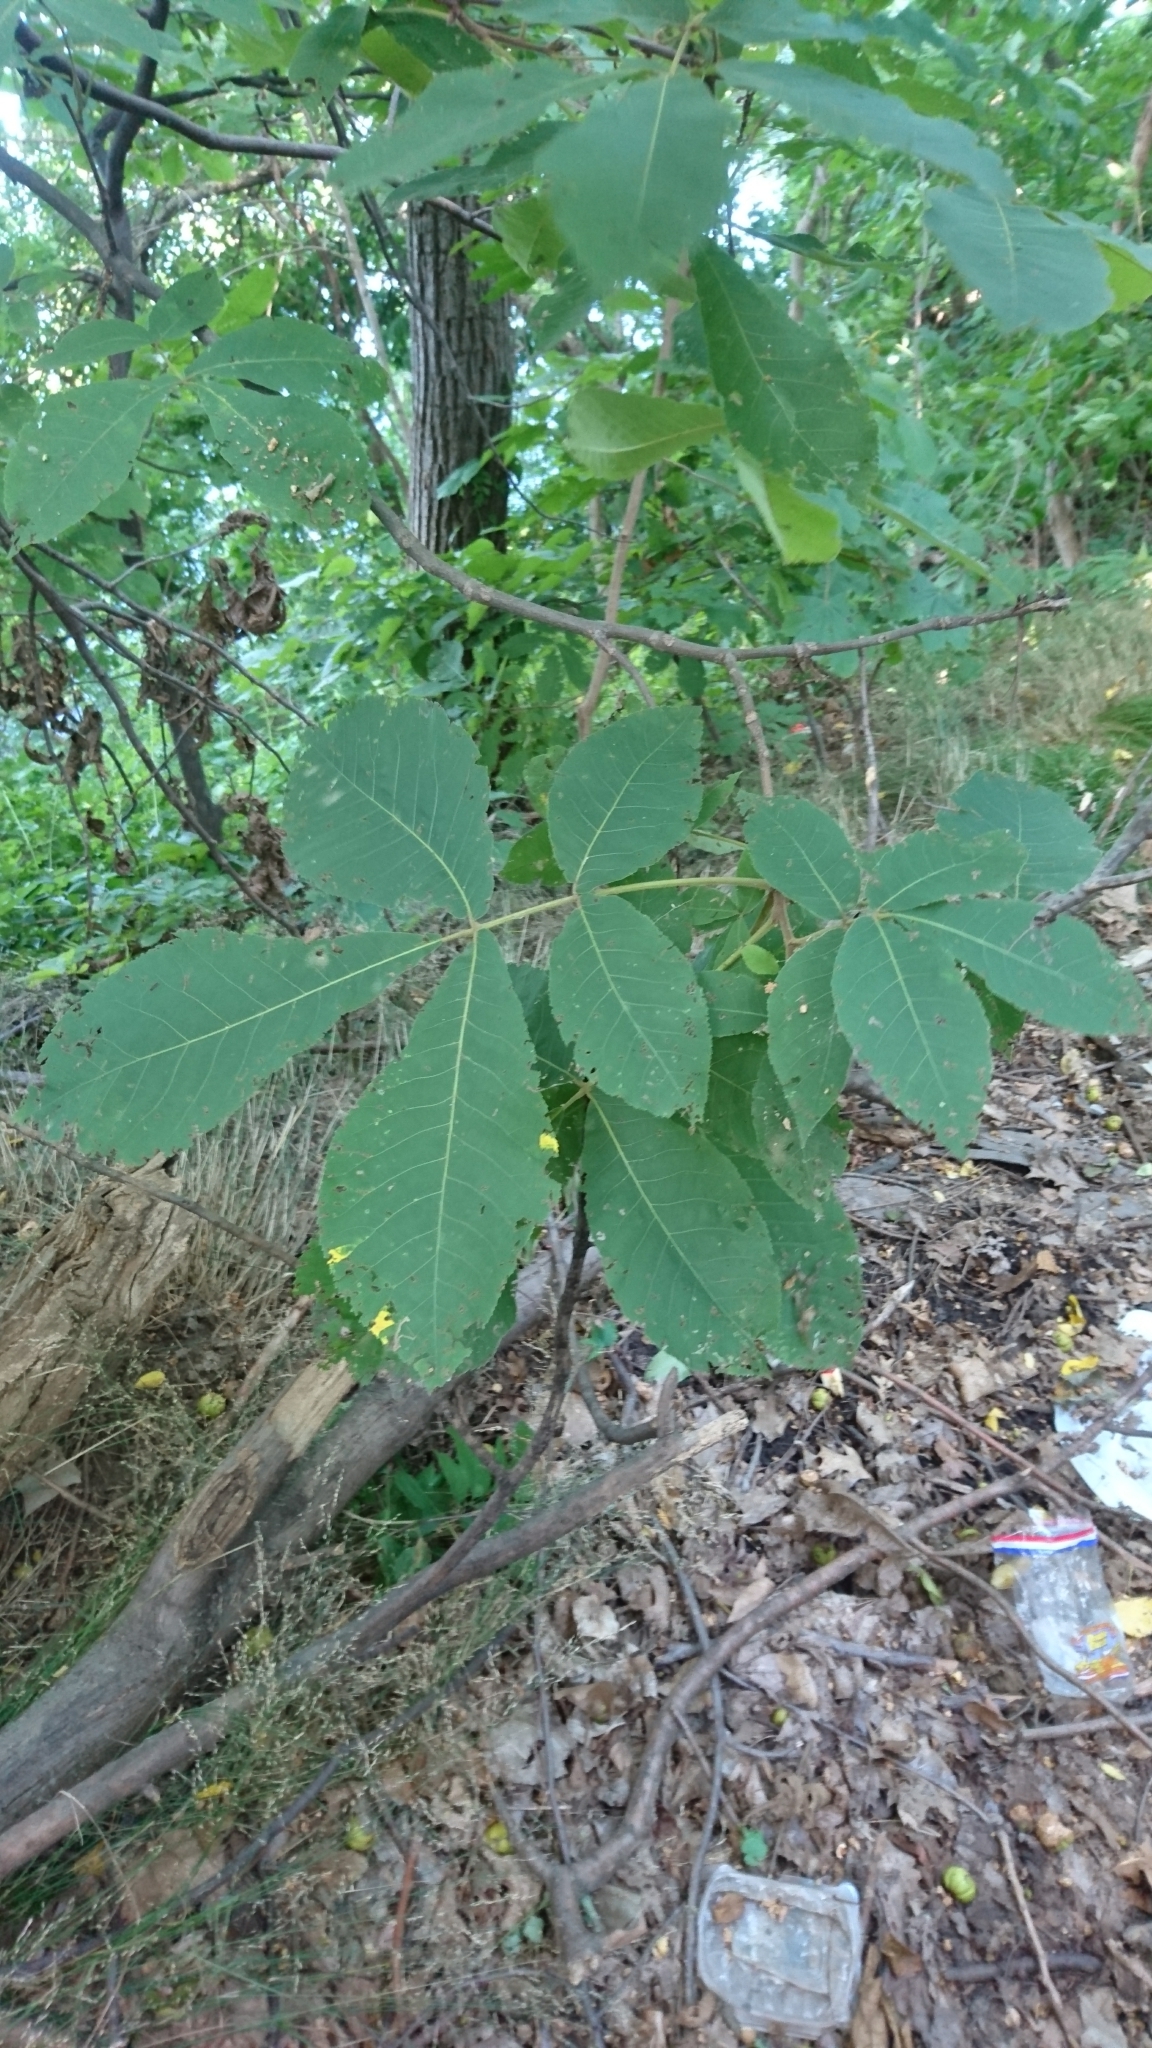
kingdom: Plantae
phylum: Tracheophyta
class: Magnoliopsida
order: Fagales
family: Juglandaceae
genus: Carya
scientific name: Carya ovata
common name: Shagbark hickory
